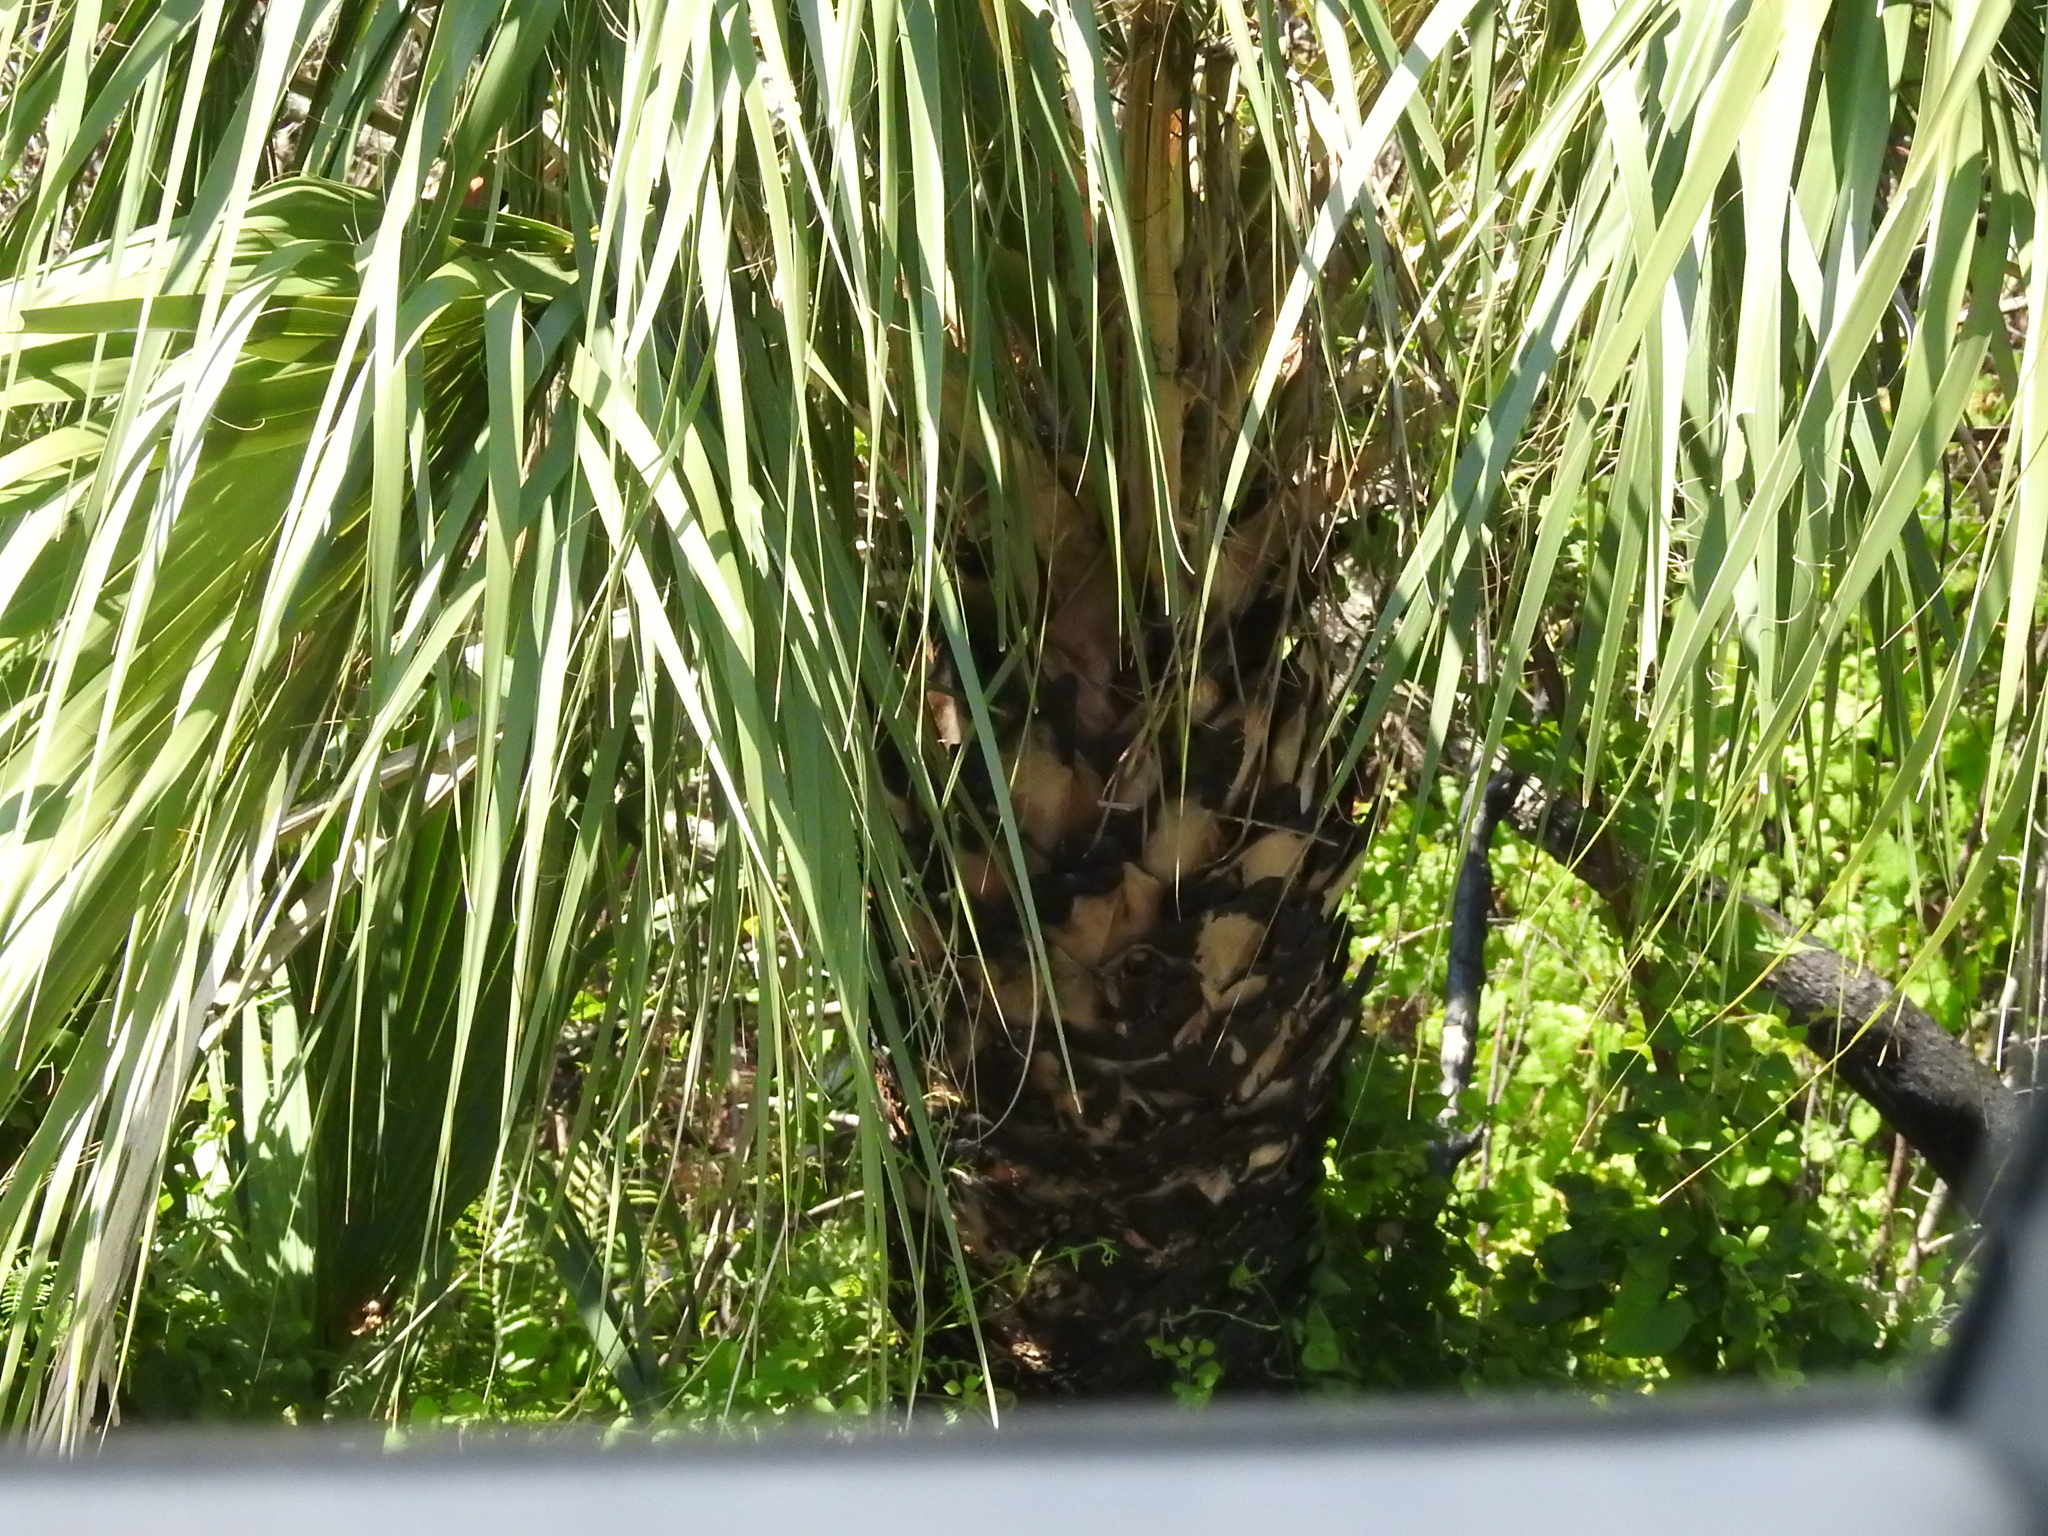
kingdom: Plantae
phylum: Tracheophyta
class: Liliopsida
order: Arecales
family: Arecaceae
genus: Sabal
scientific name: Sabal palmetto
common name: Blue palmetto
